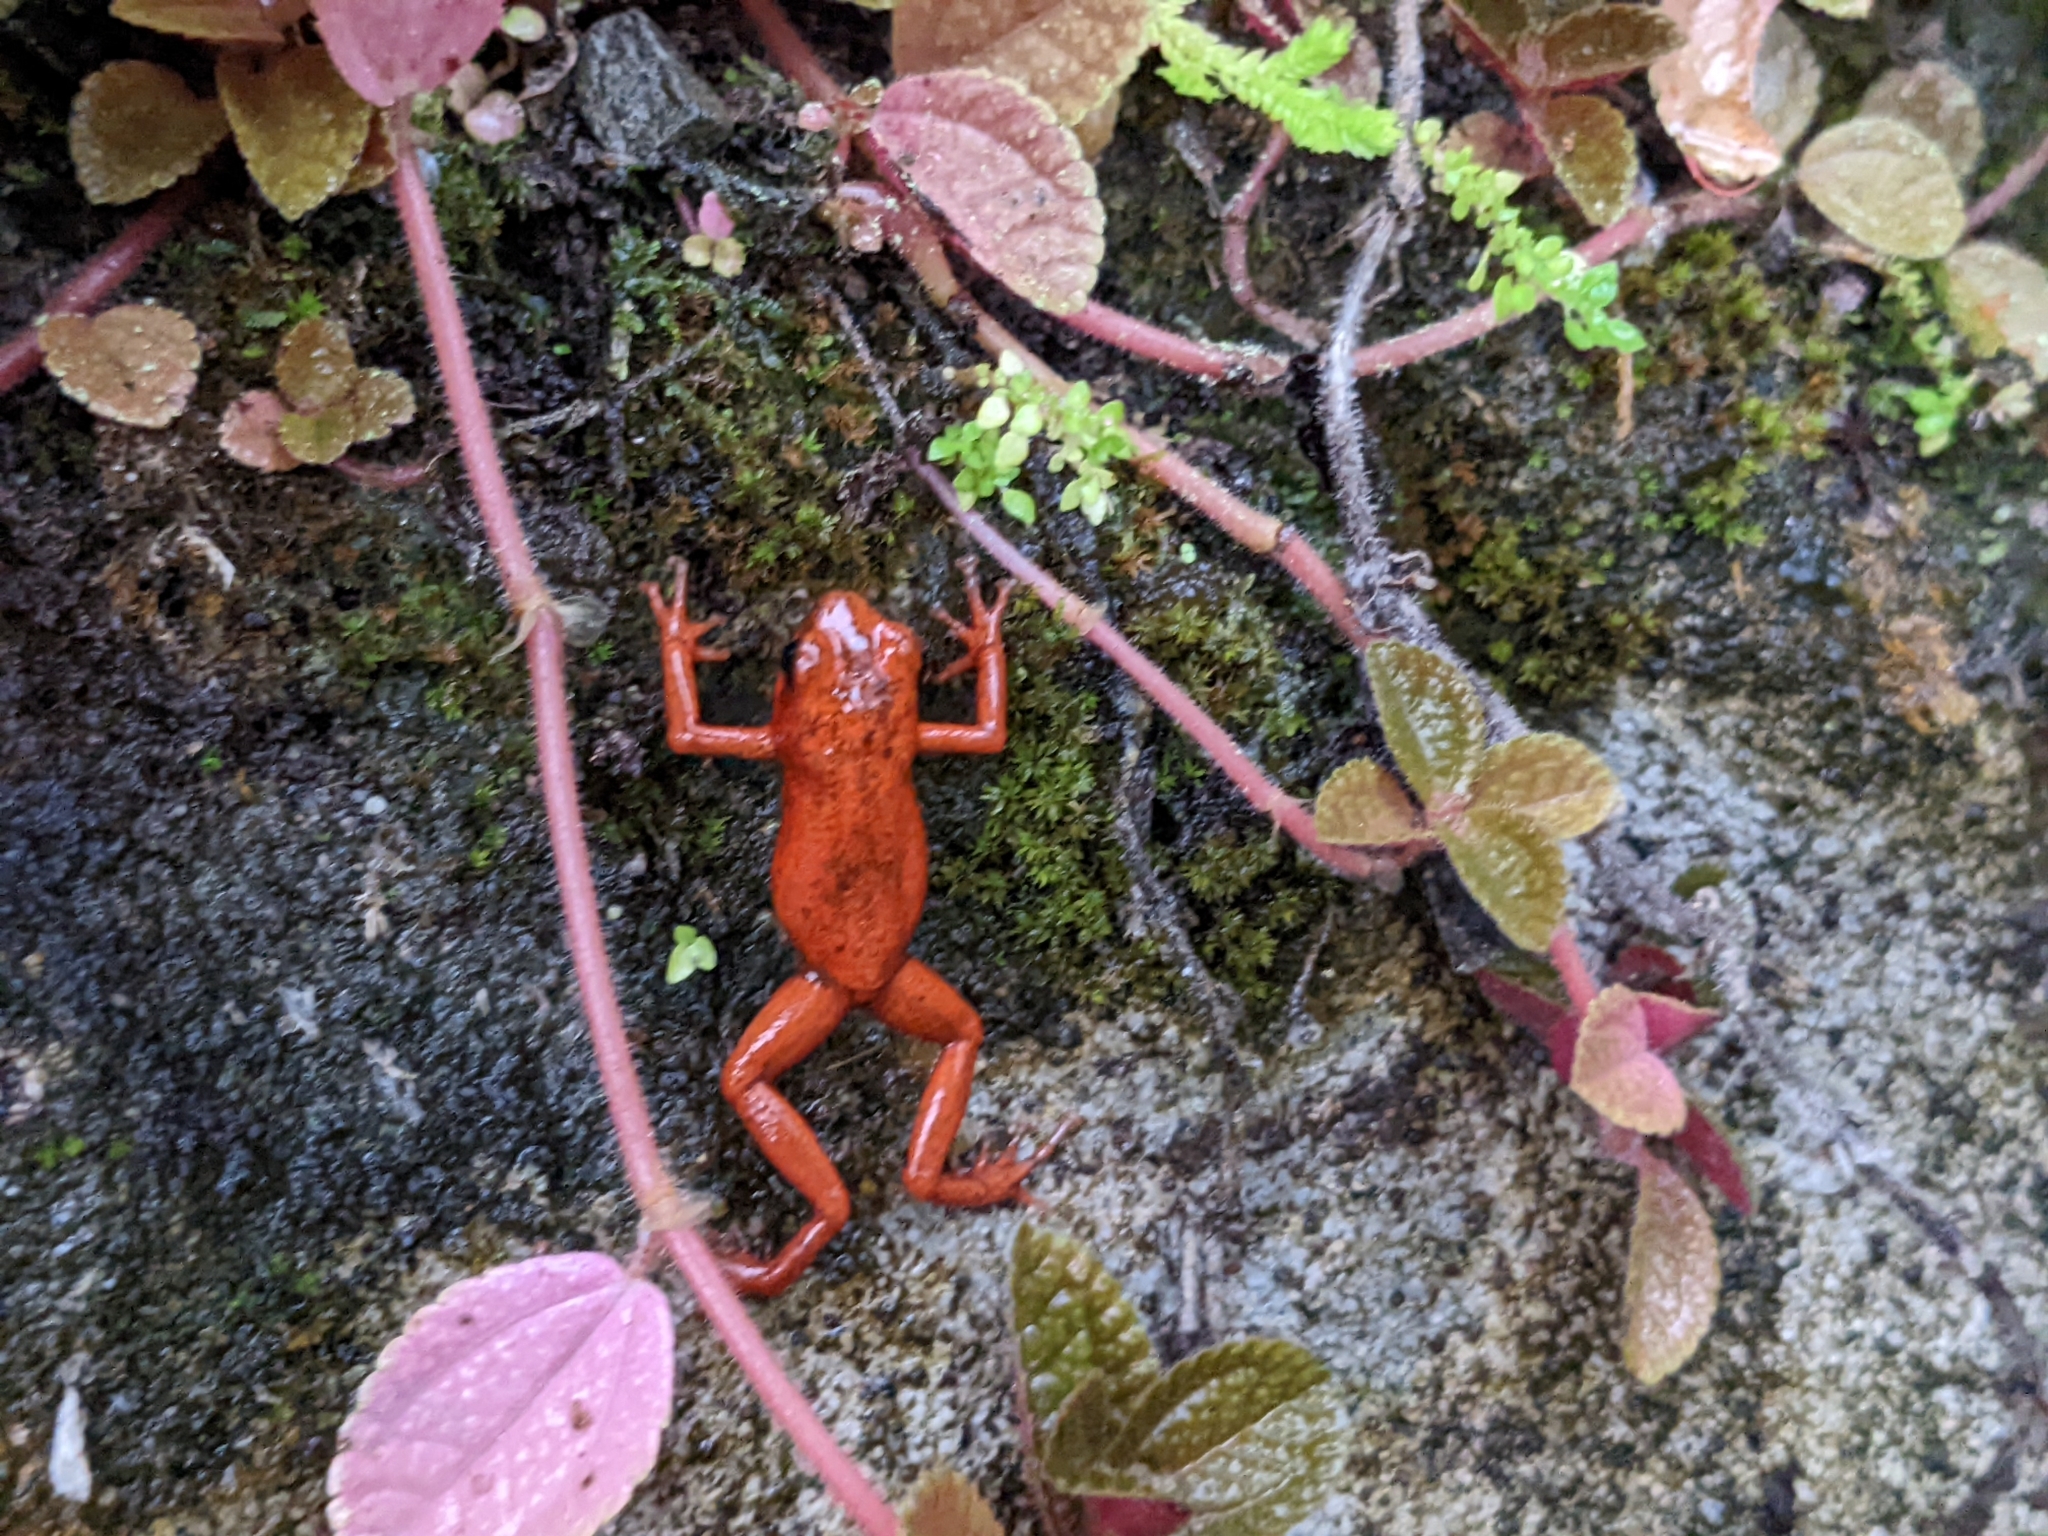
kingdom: Animalia
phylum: Chordata
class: Amphibia
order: Anura
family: Dendrobatidae
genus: Oophaga
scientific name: Oophaga pumilio
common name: Flaming poison frog
